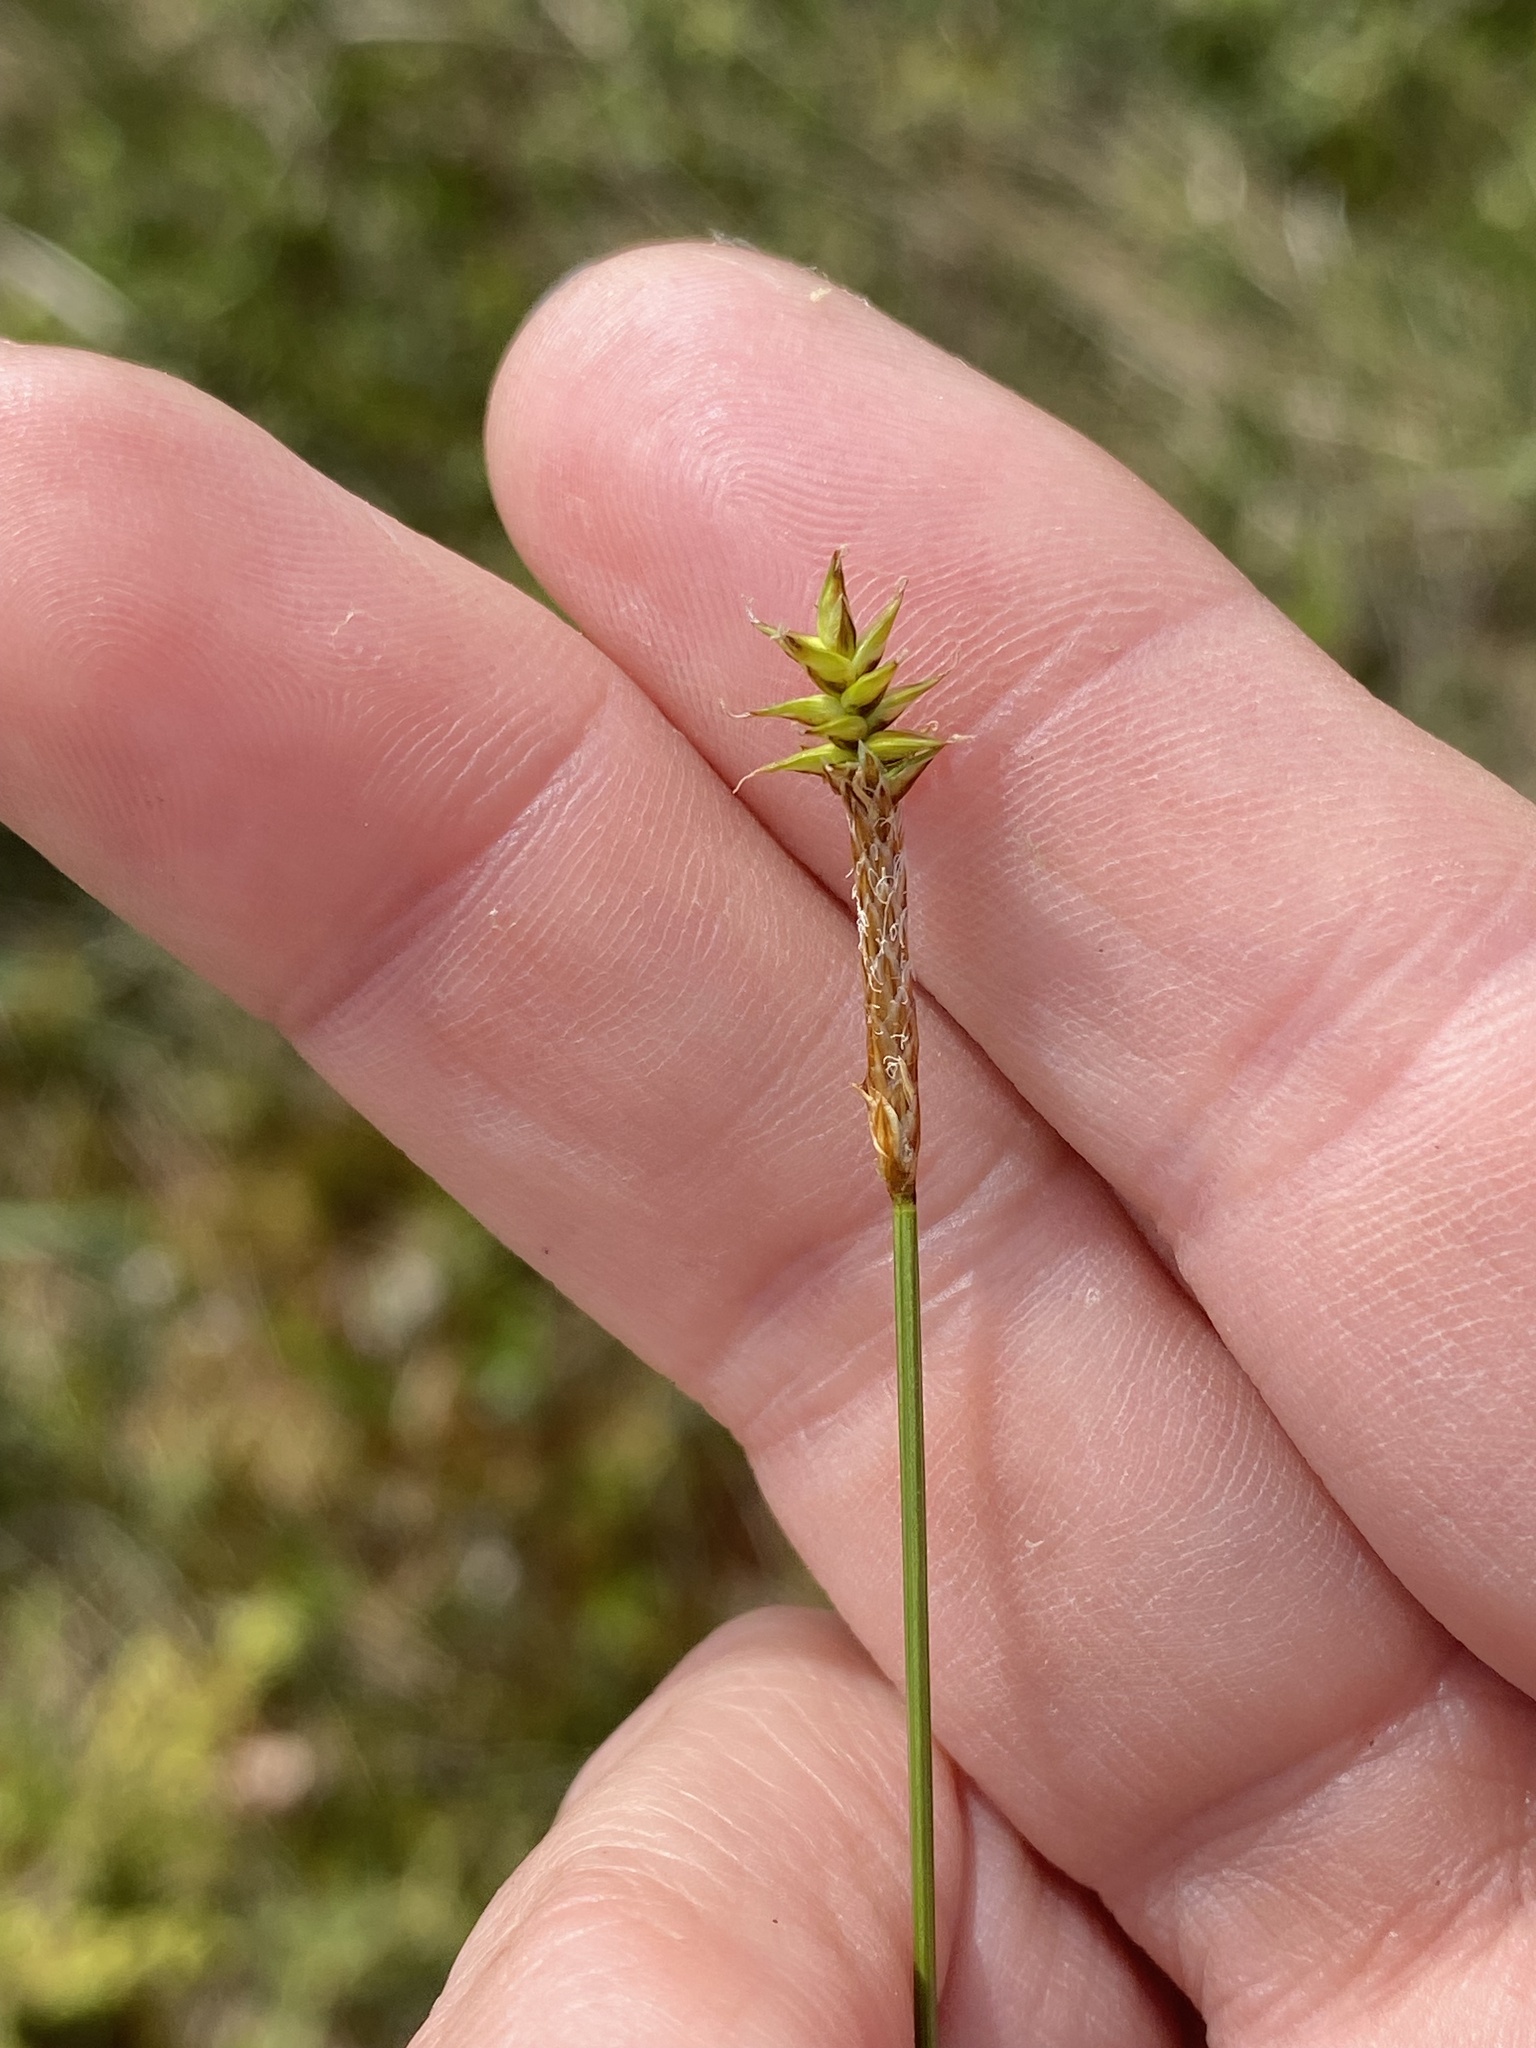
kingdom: Plantae
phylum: Tracheophyta
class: Liliopsida
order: Poales
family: Cyperaceae
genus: Carex
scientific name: Carex exilis
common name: Coastal sedge
